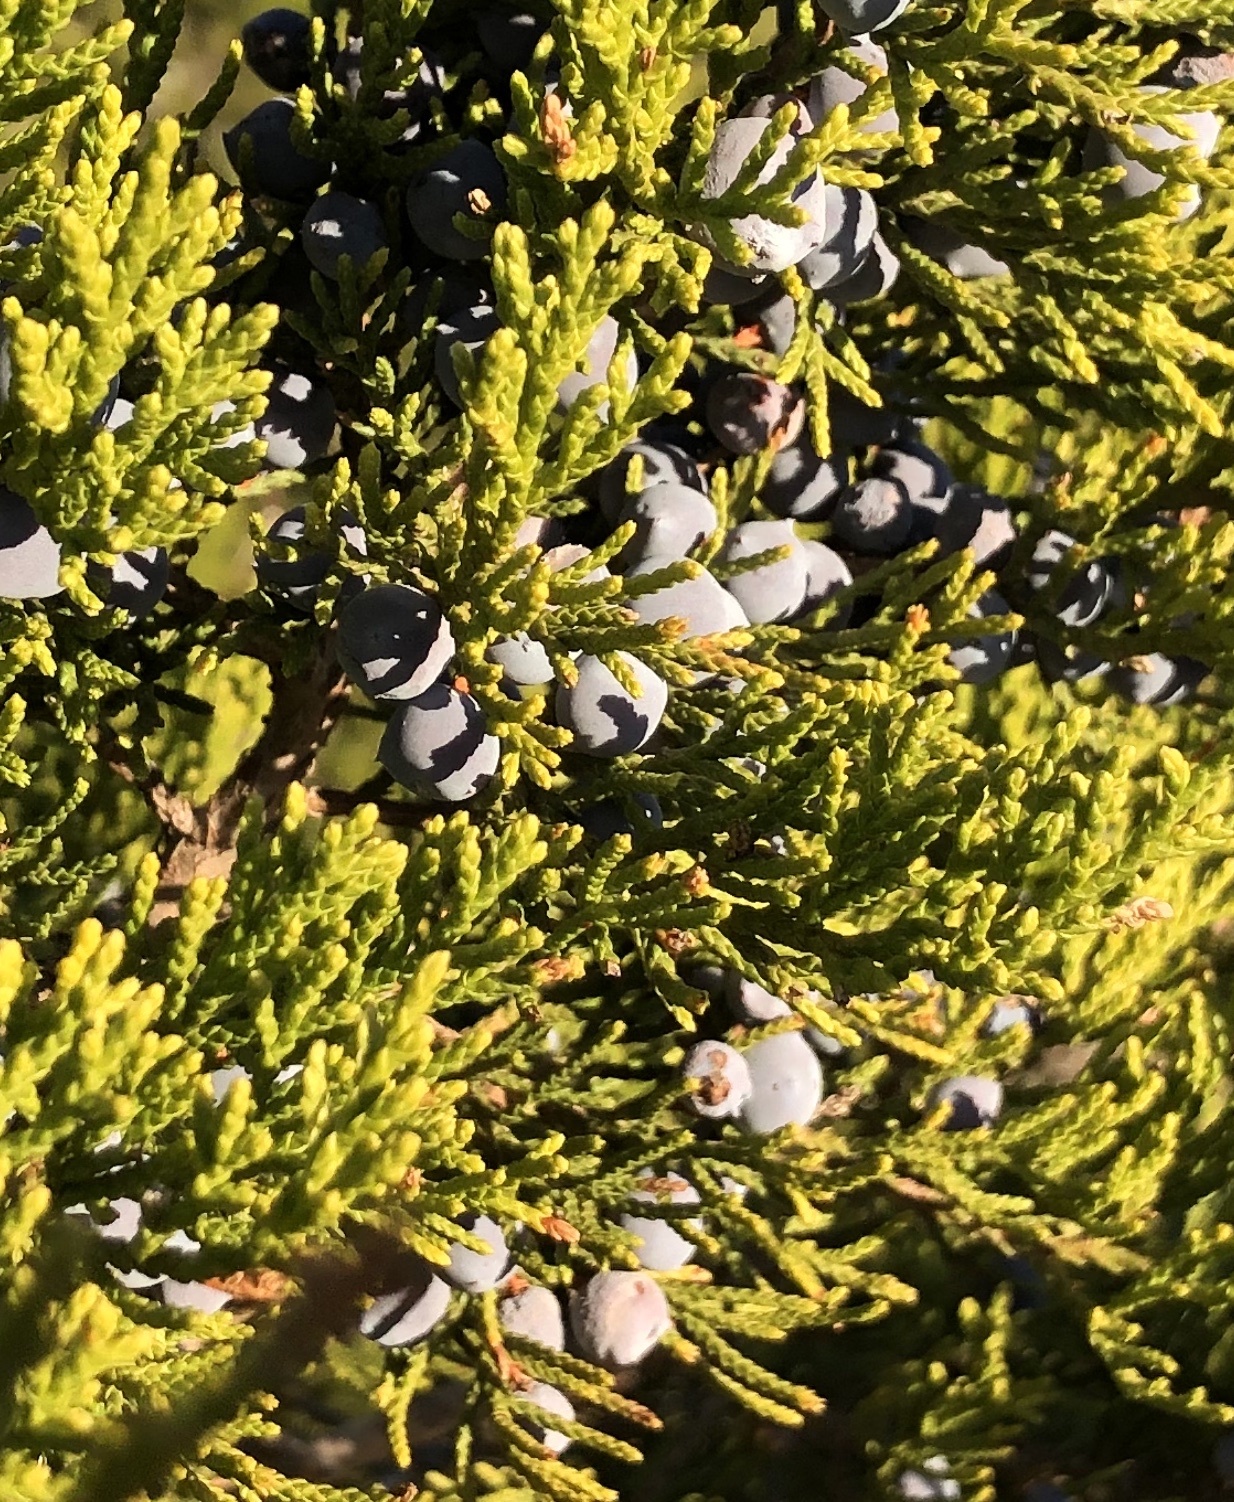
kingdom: Plantae
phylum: Tracheophyta
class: Pinopsida
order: Pinales
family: Cupressaceae
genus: Juniperus
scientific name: Juniperus ashei
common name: Mexican juniper
